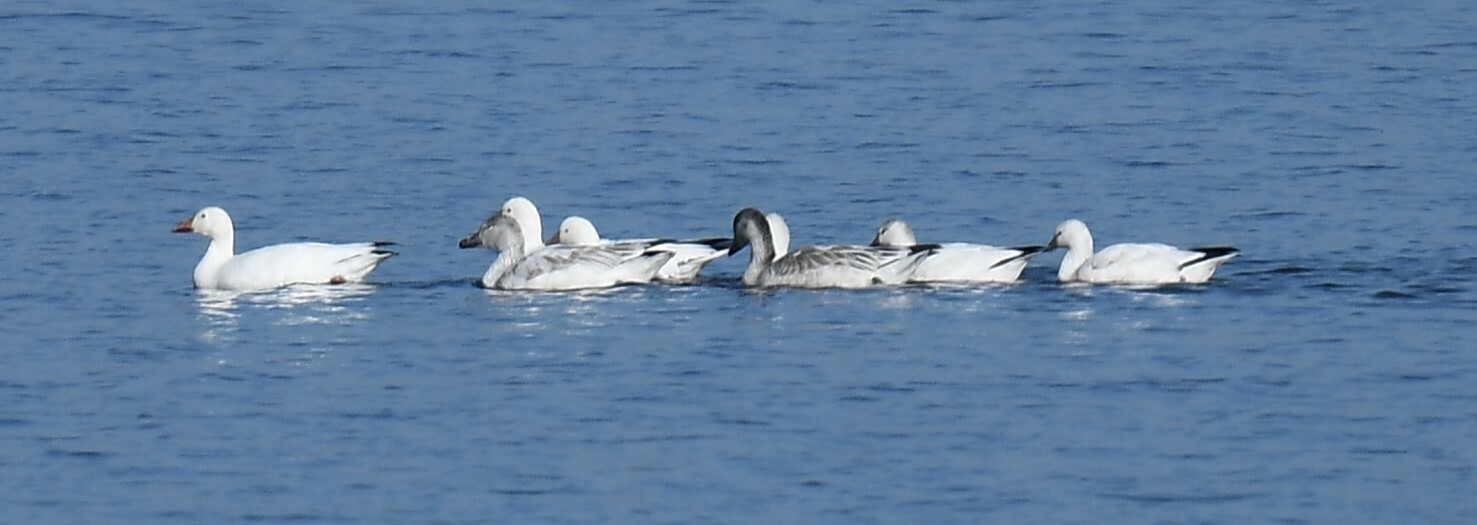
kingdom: Animalia
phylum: Chordata
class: Aves
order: Anseriformes
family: Anatidae
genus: Anser
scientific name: Anser caerulescens
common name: Snow goose
